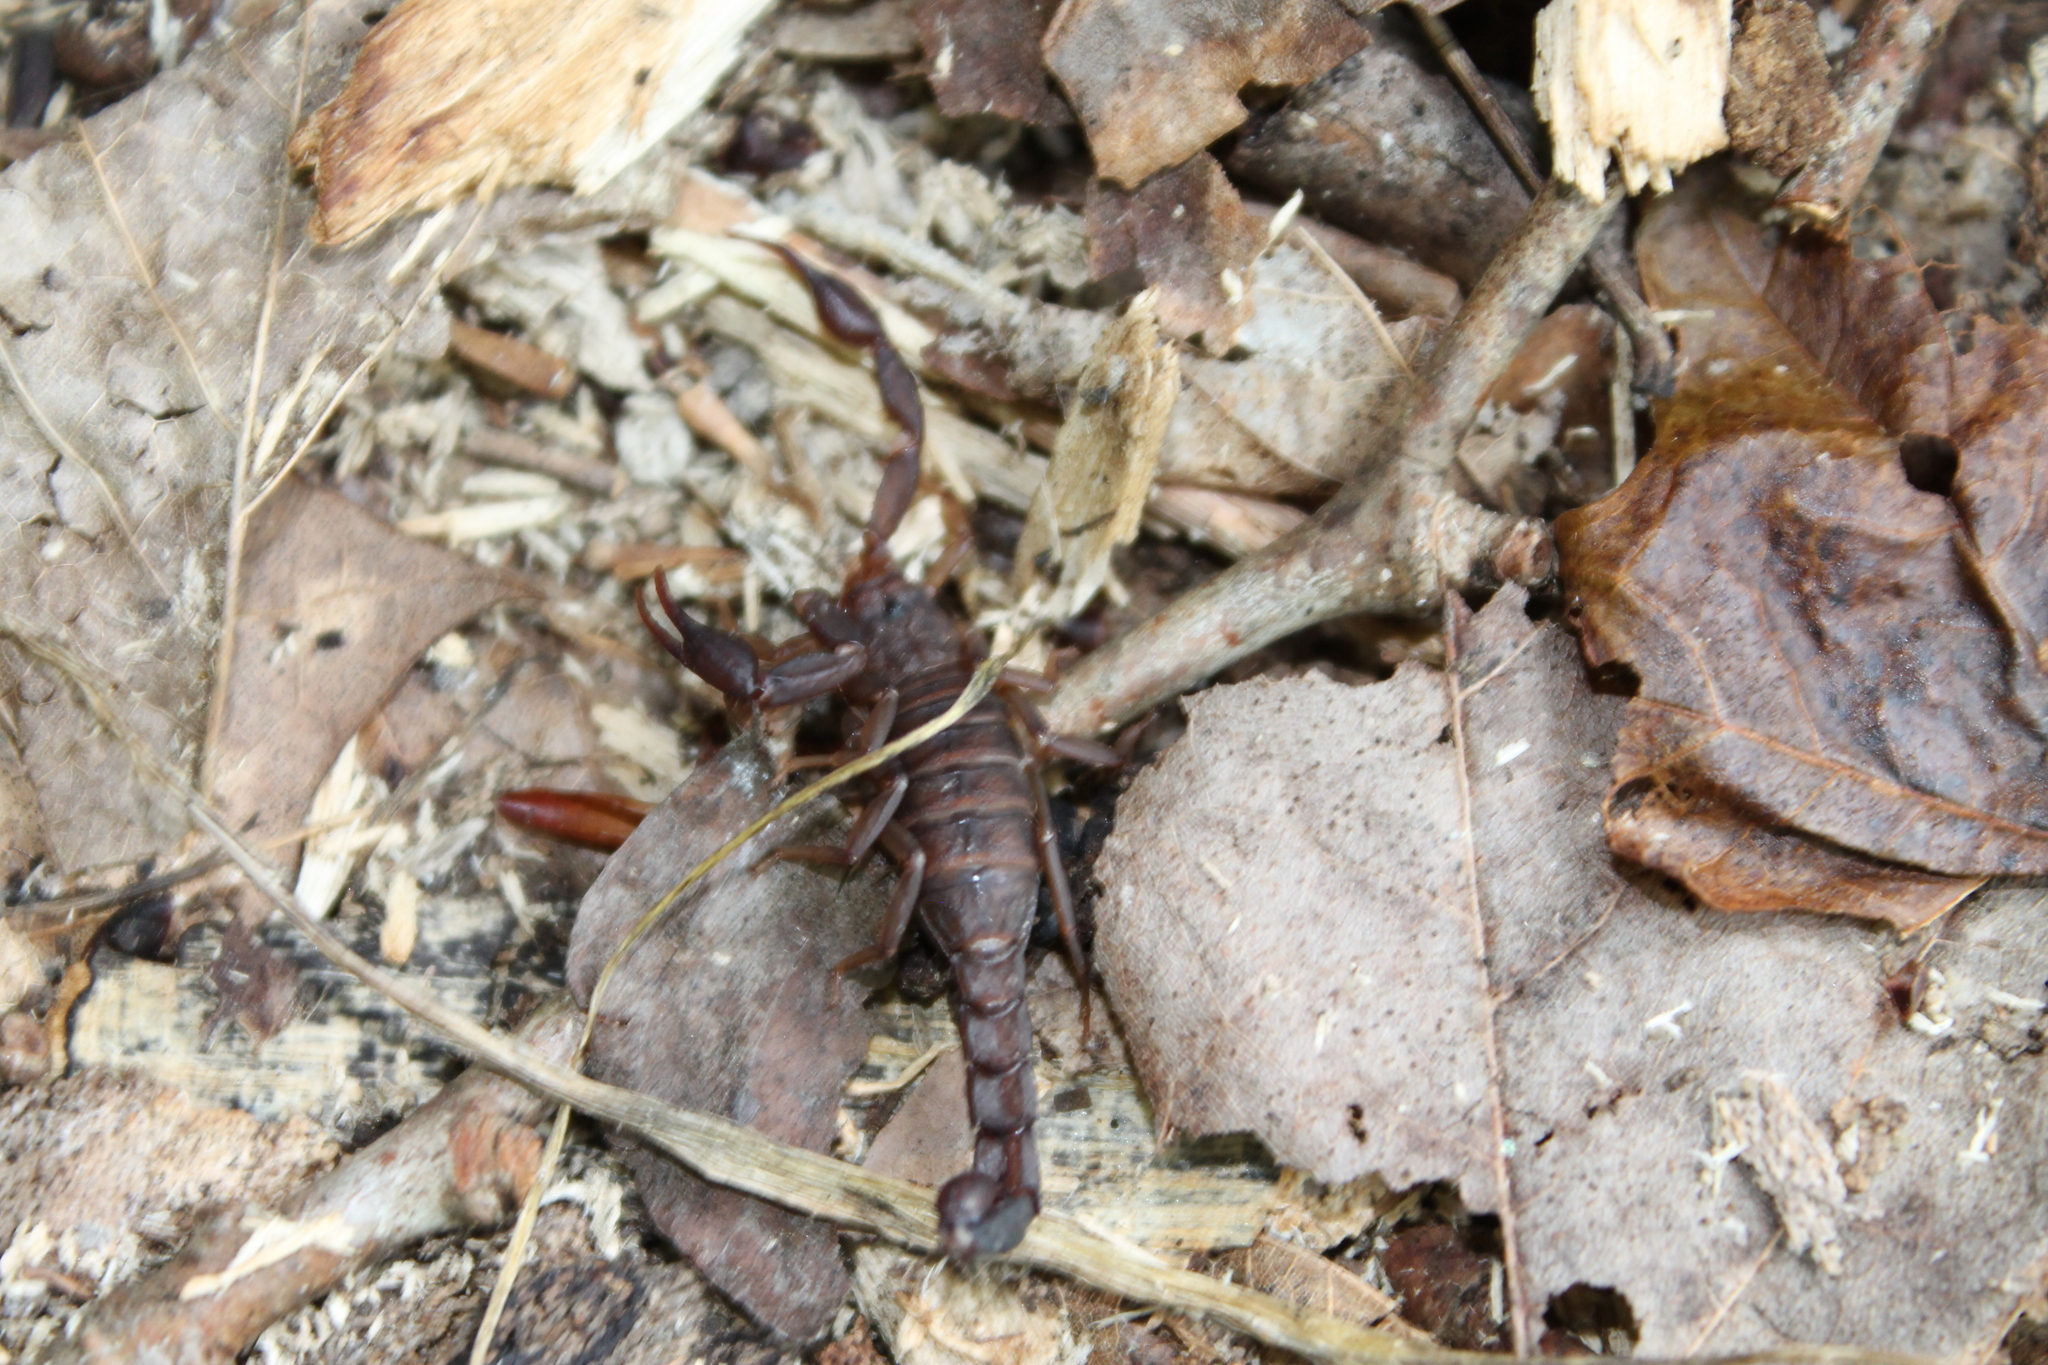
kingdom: Animalia
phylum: Arthropoda
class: Arachnida
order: Scorpiones
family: Vaejovidae
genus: Vaejovis
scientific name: Vaejovis carolinianus
